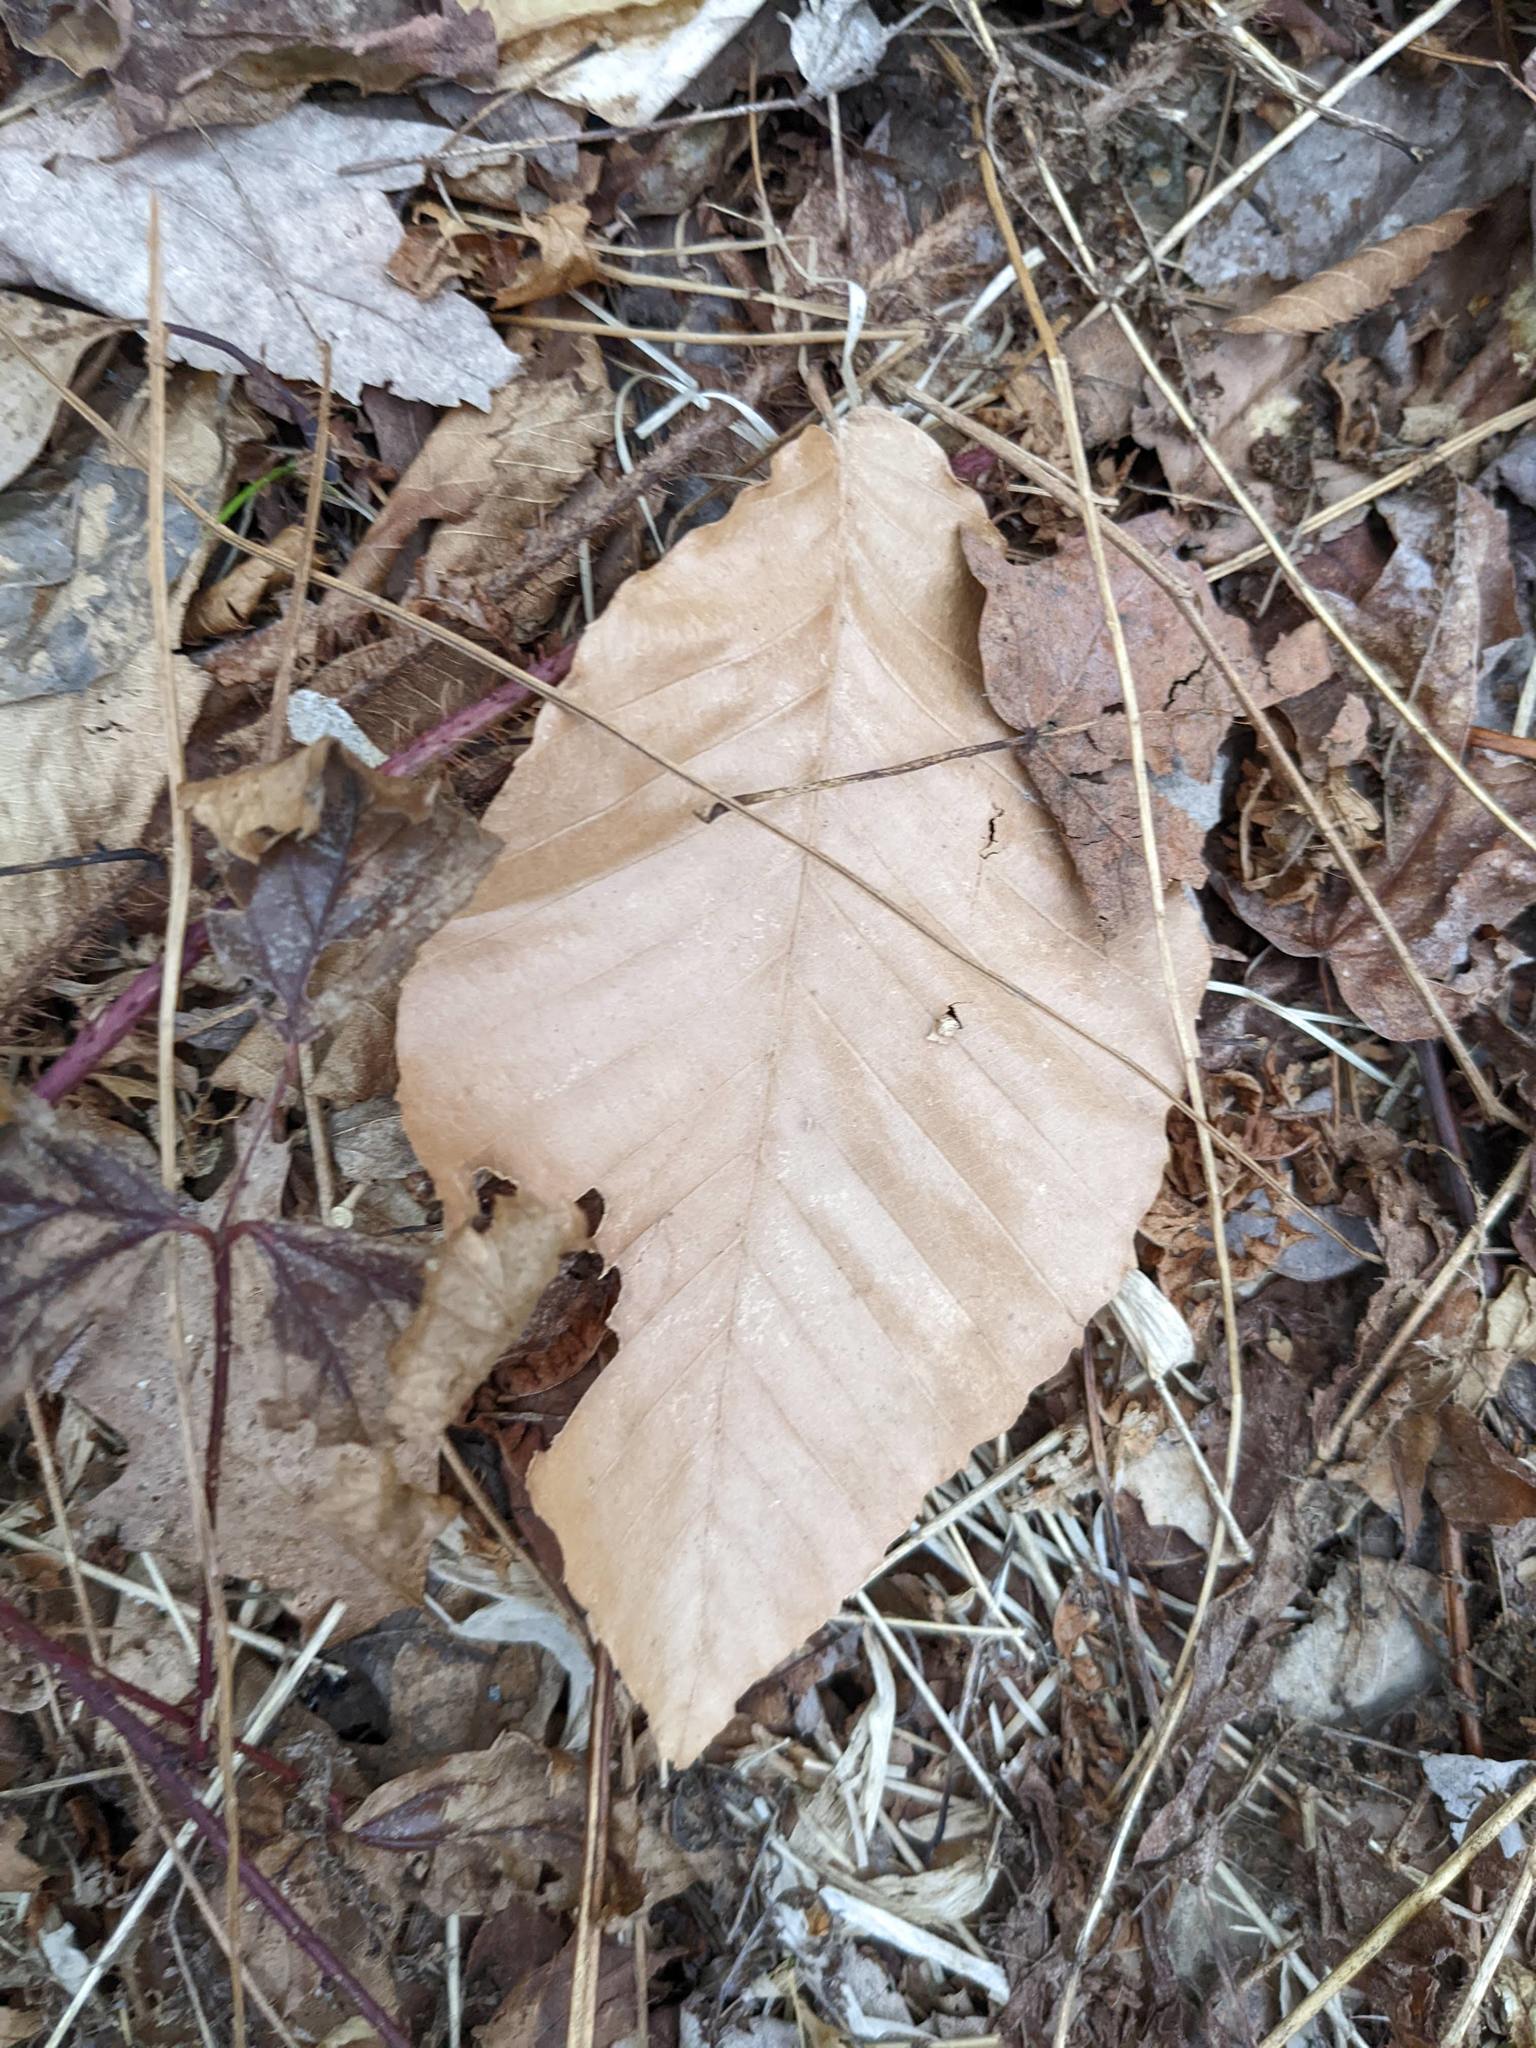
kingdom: Plantae
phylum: Tracheophyta
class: Magnoliopsida
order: Fagales
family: Fagaceae
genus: Fagus
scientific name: Fagus grandifolia
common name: American beech
